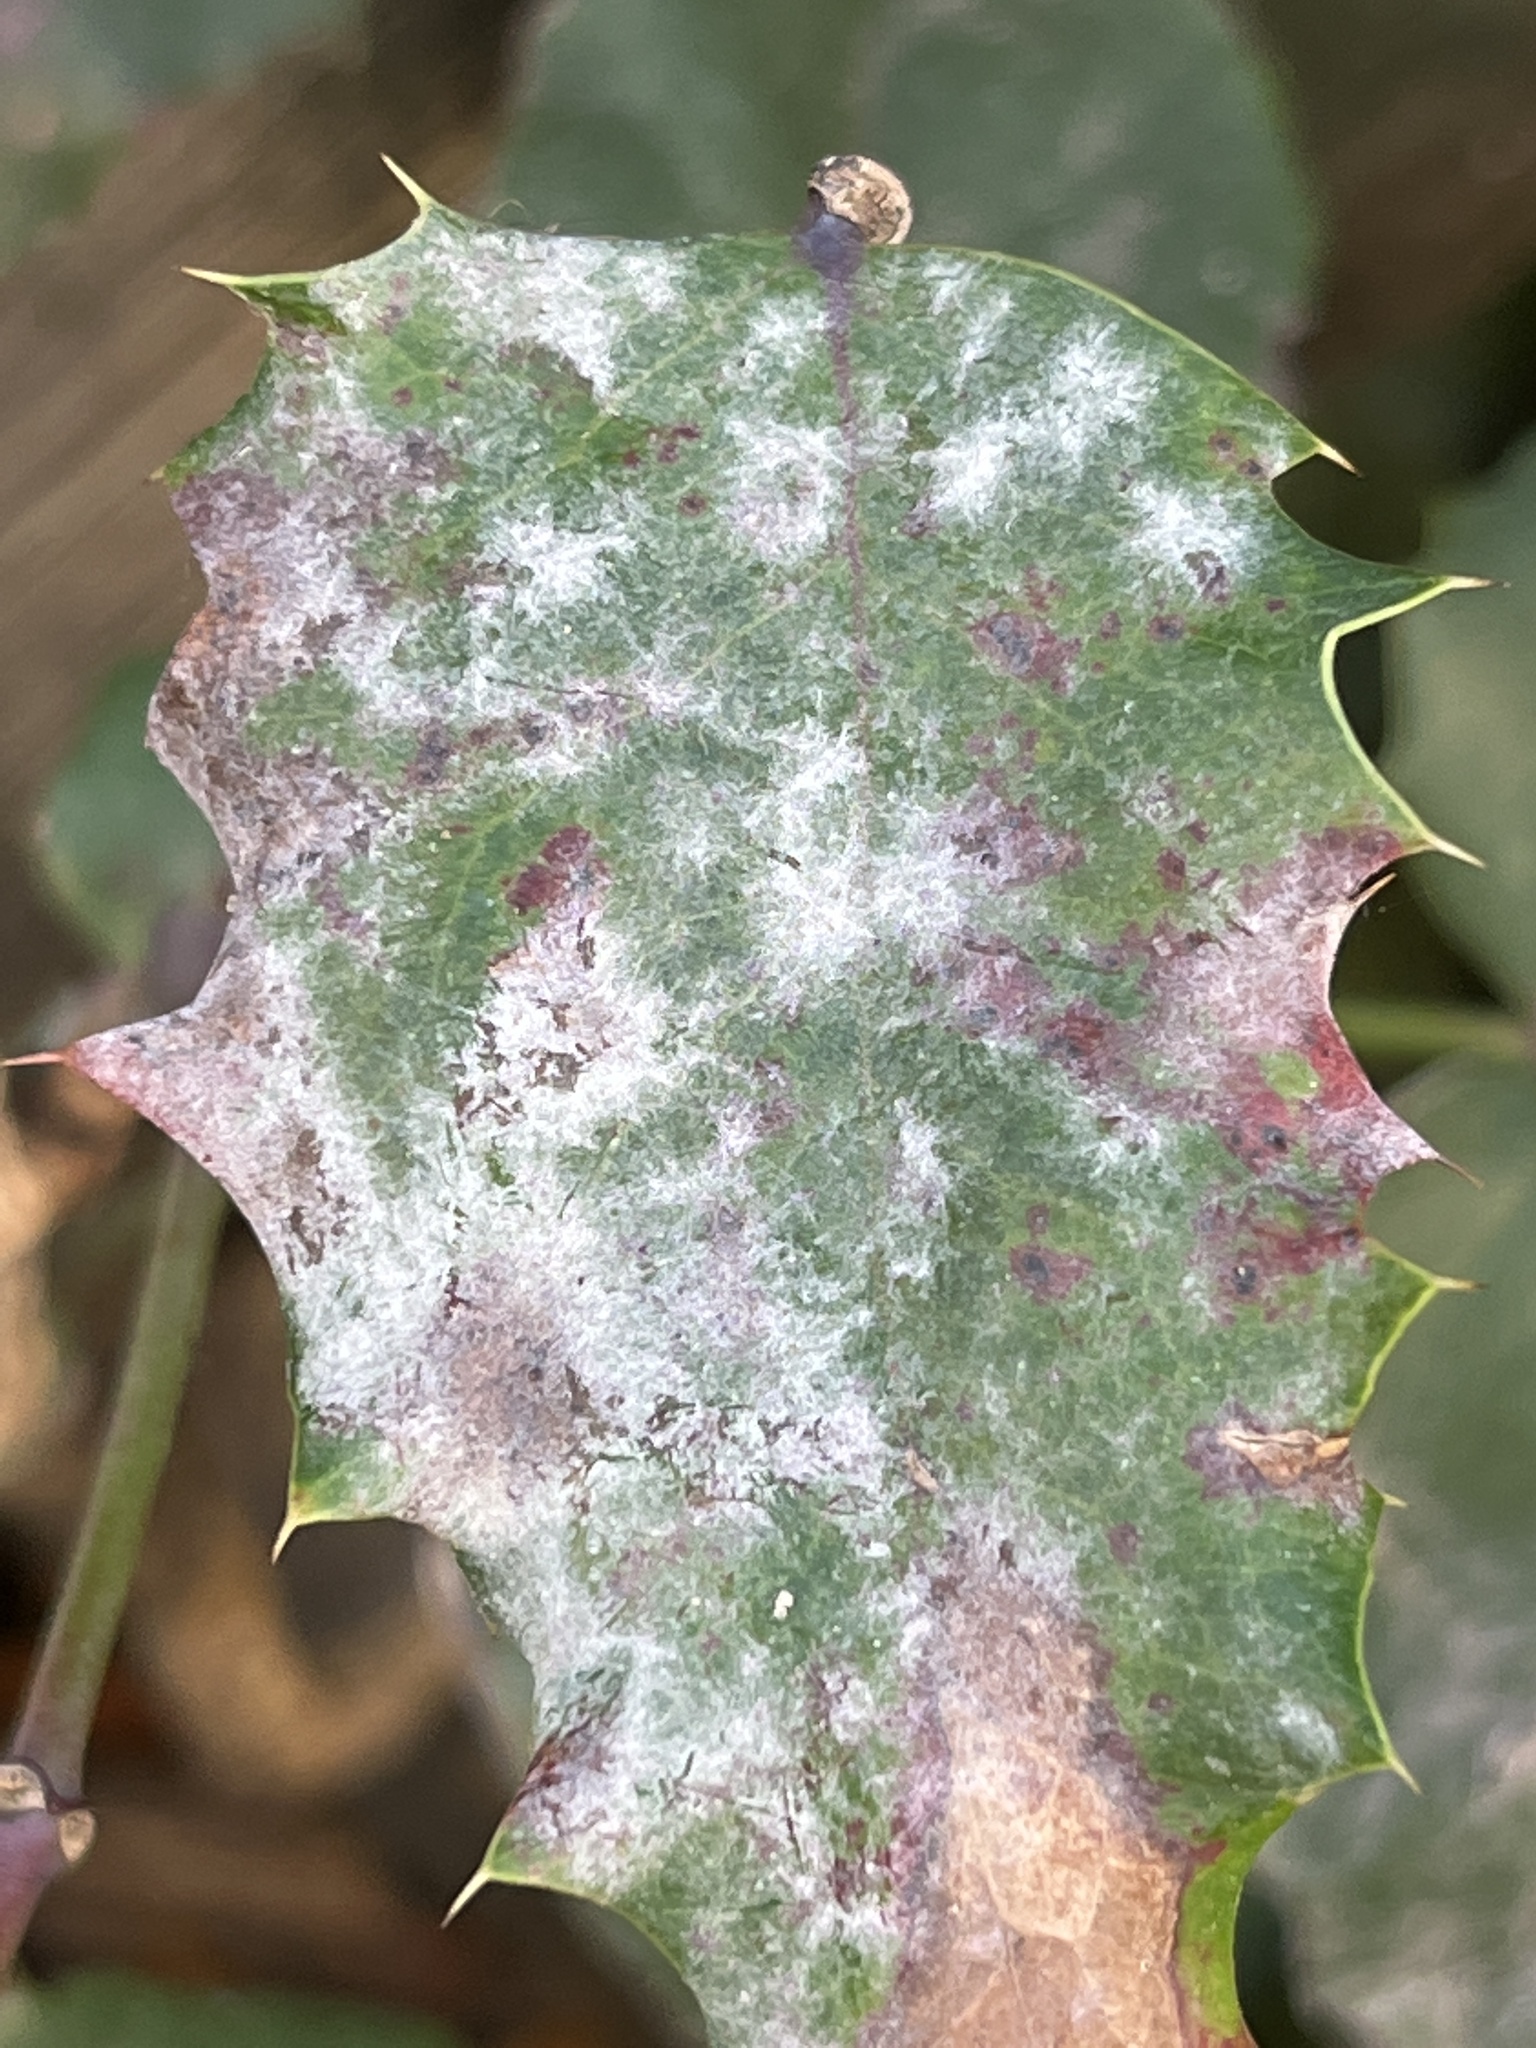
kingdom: Fungi
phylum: Ascomycota
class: Leotiomycetes
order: Helotiales
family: Erysiphaceae
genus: Erysiphe
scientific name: Erysiphe berberidis
